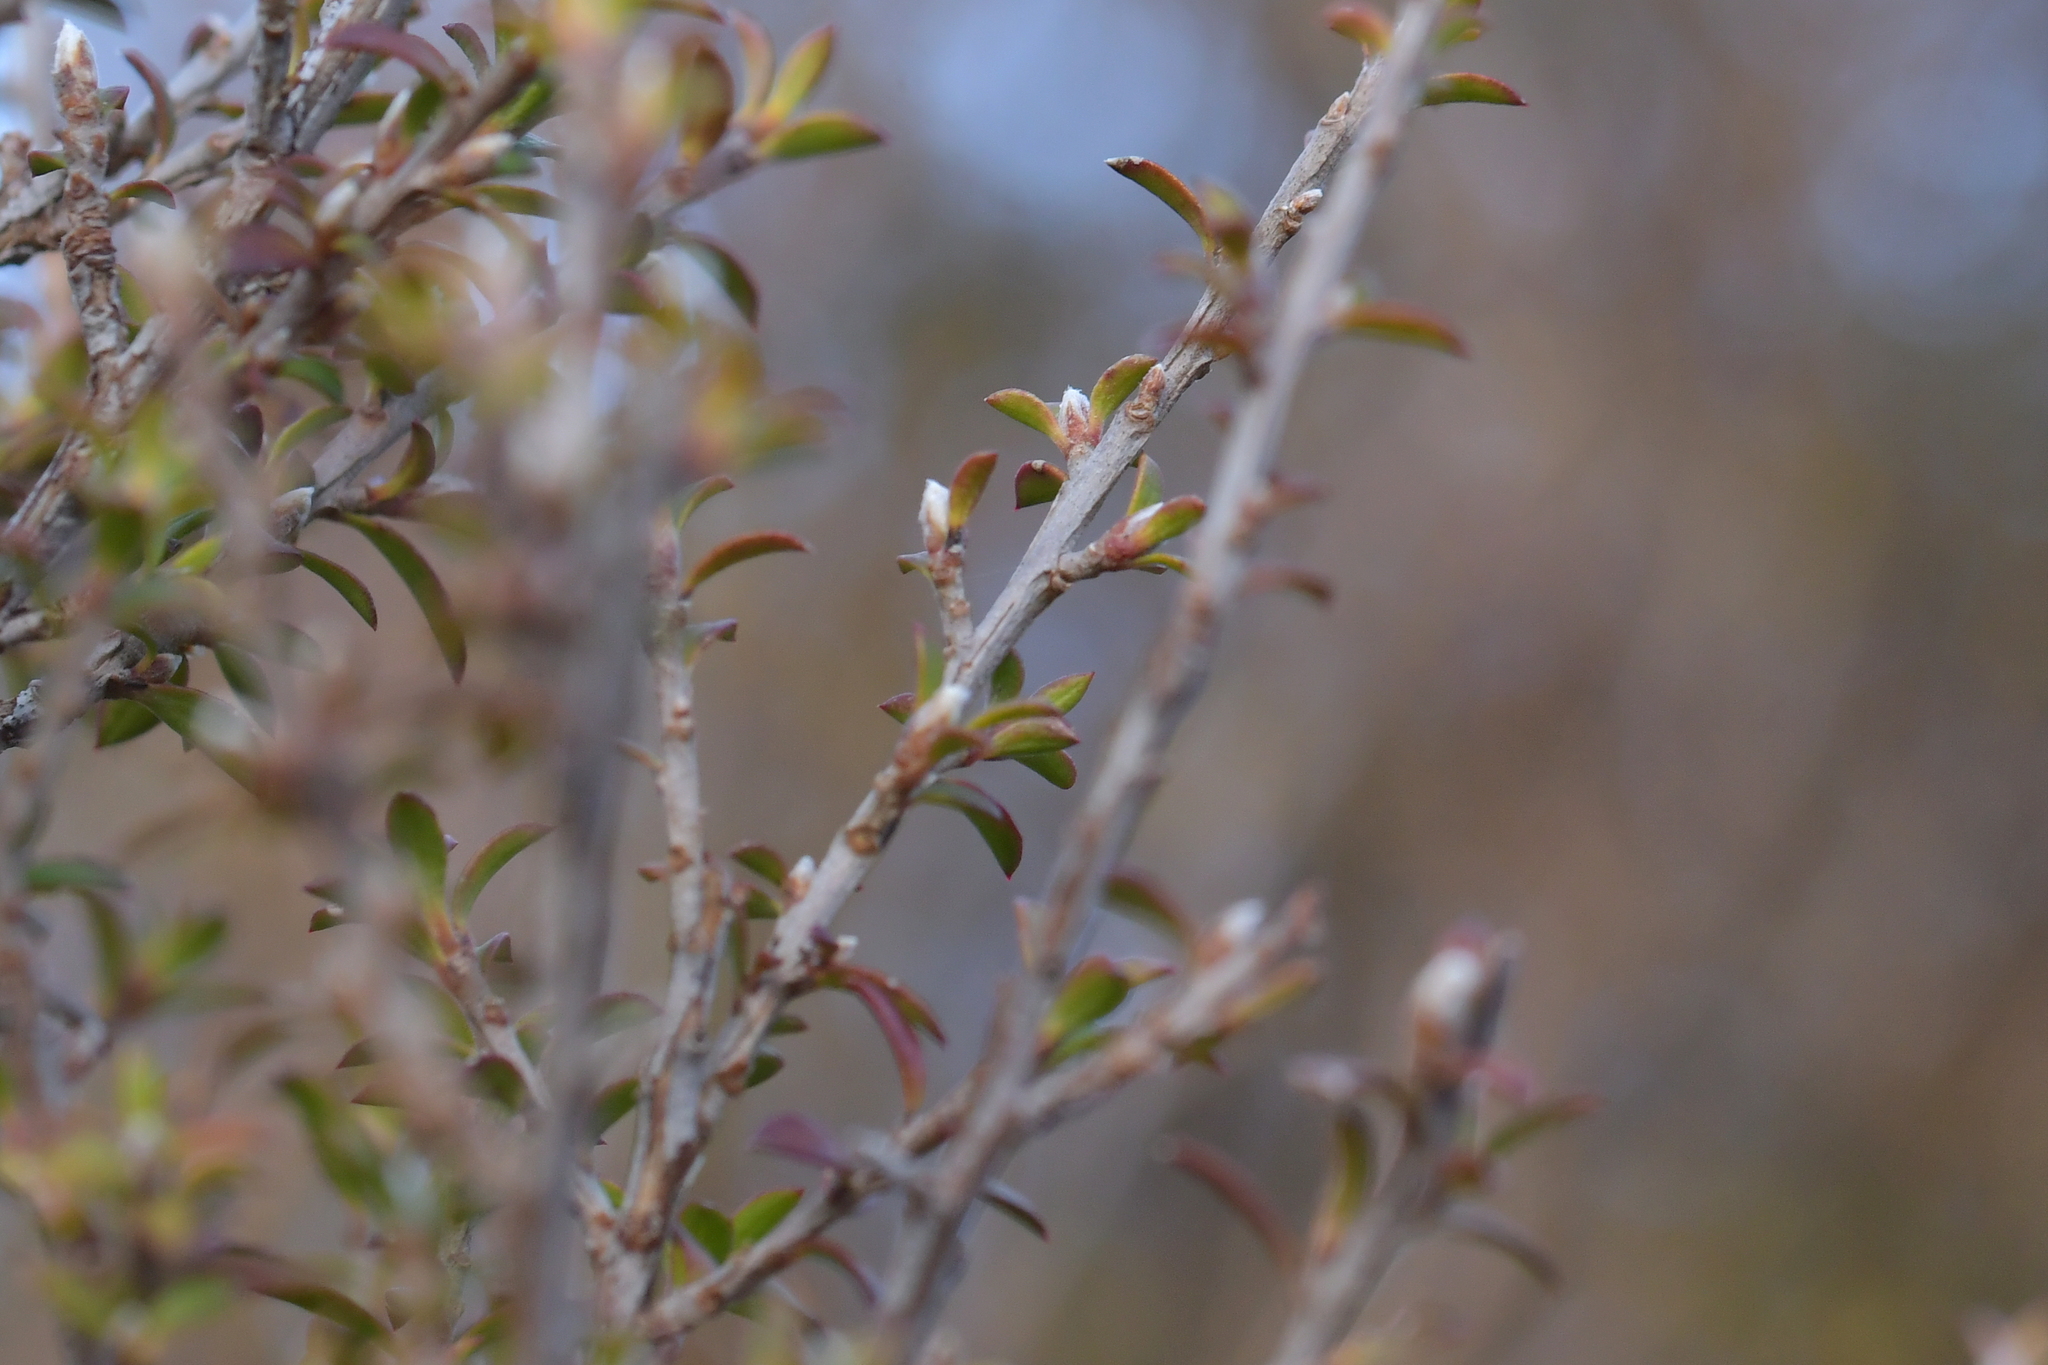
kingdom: Plantae
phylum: Tracheophyta
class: Magnoliopsida
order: Myrtales
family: Myrtaceae
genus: Leptospermum
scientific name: Leptospermum scoparium
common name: Broom tea-tree
